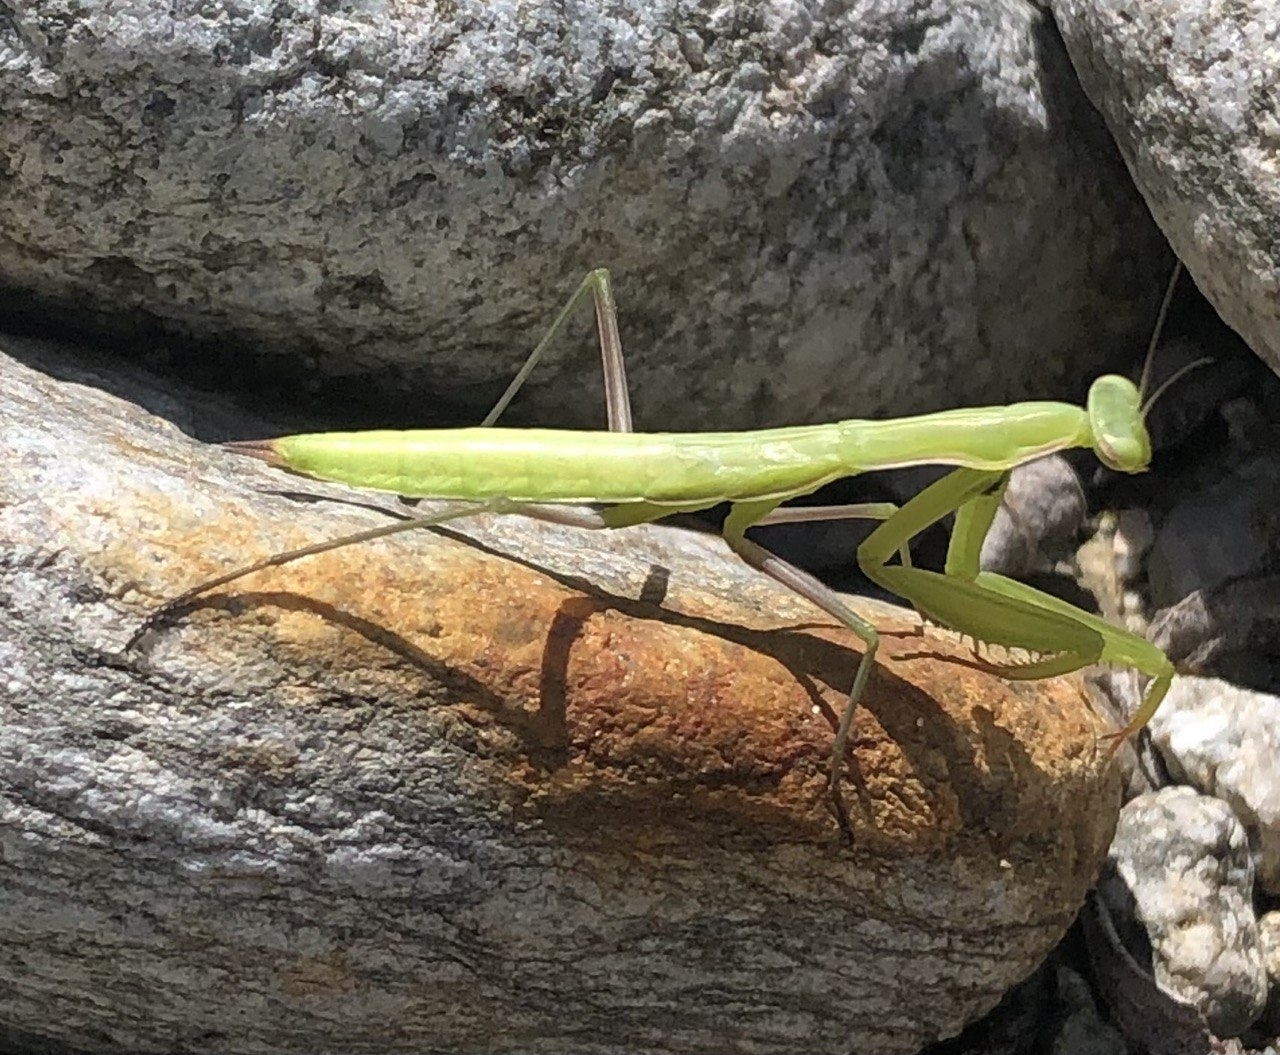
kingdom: Animalia
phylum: Arthropoda
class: Insecta
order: Mantodea
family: Mantidae
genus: Mantis
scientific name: Mantis religiosa
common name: Praying mantis
